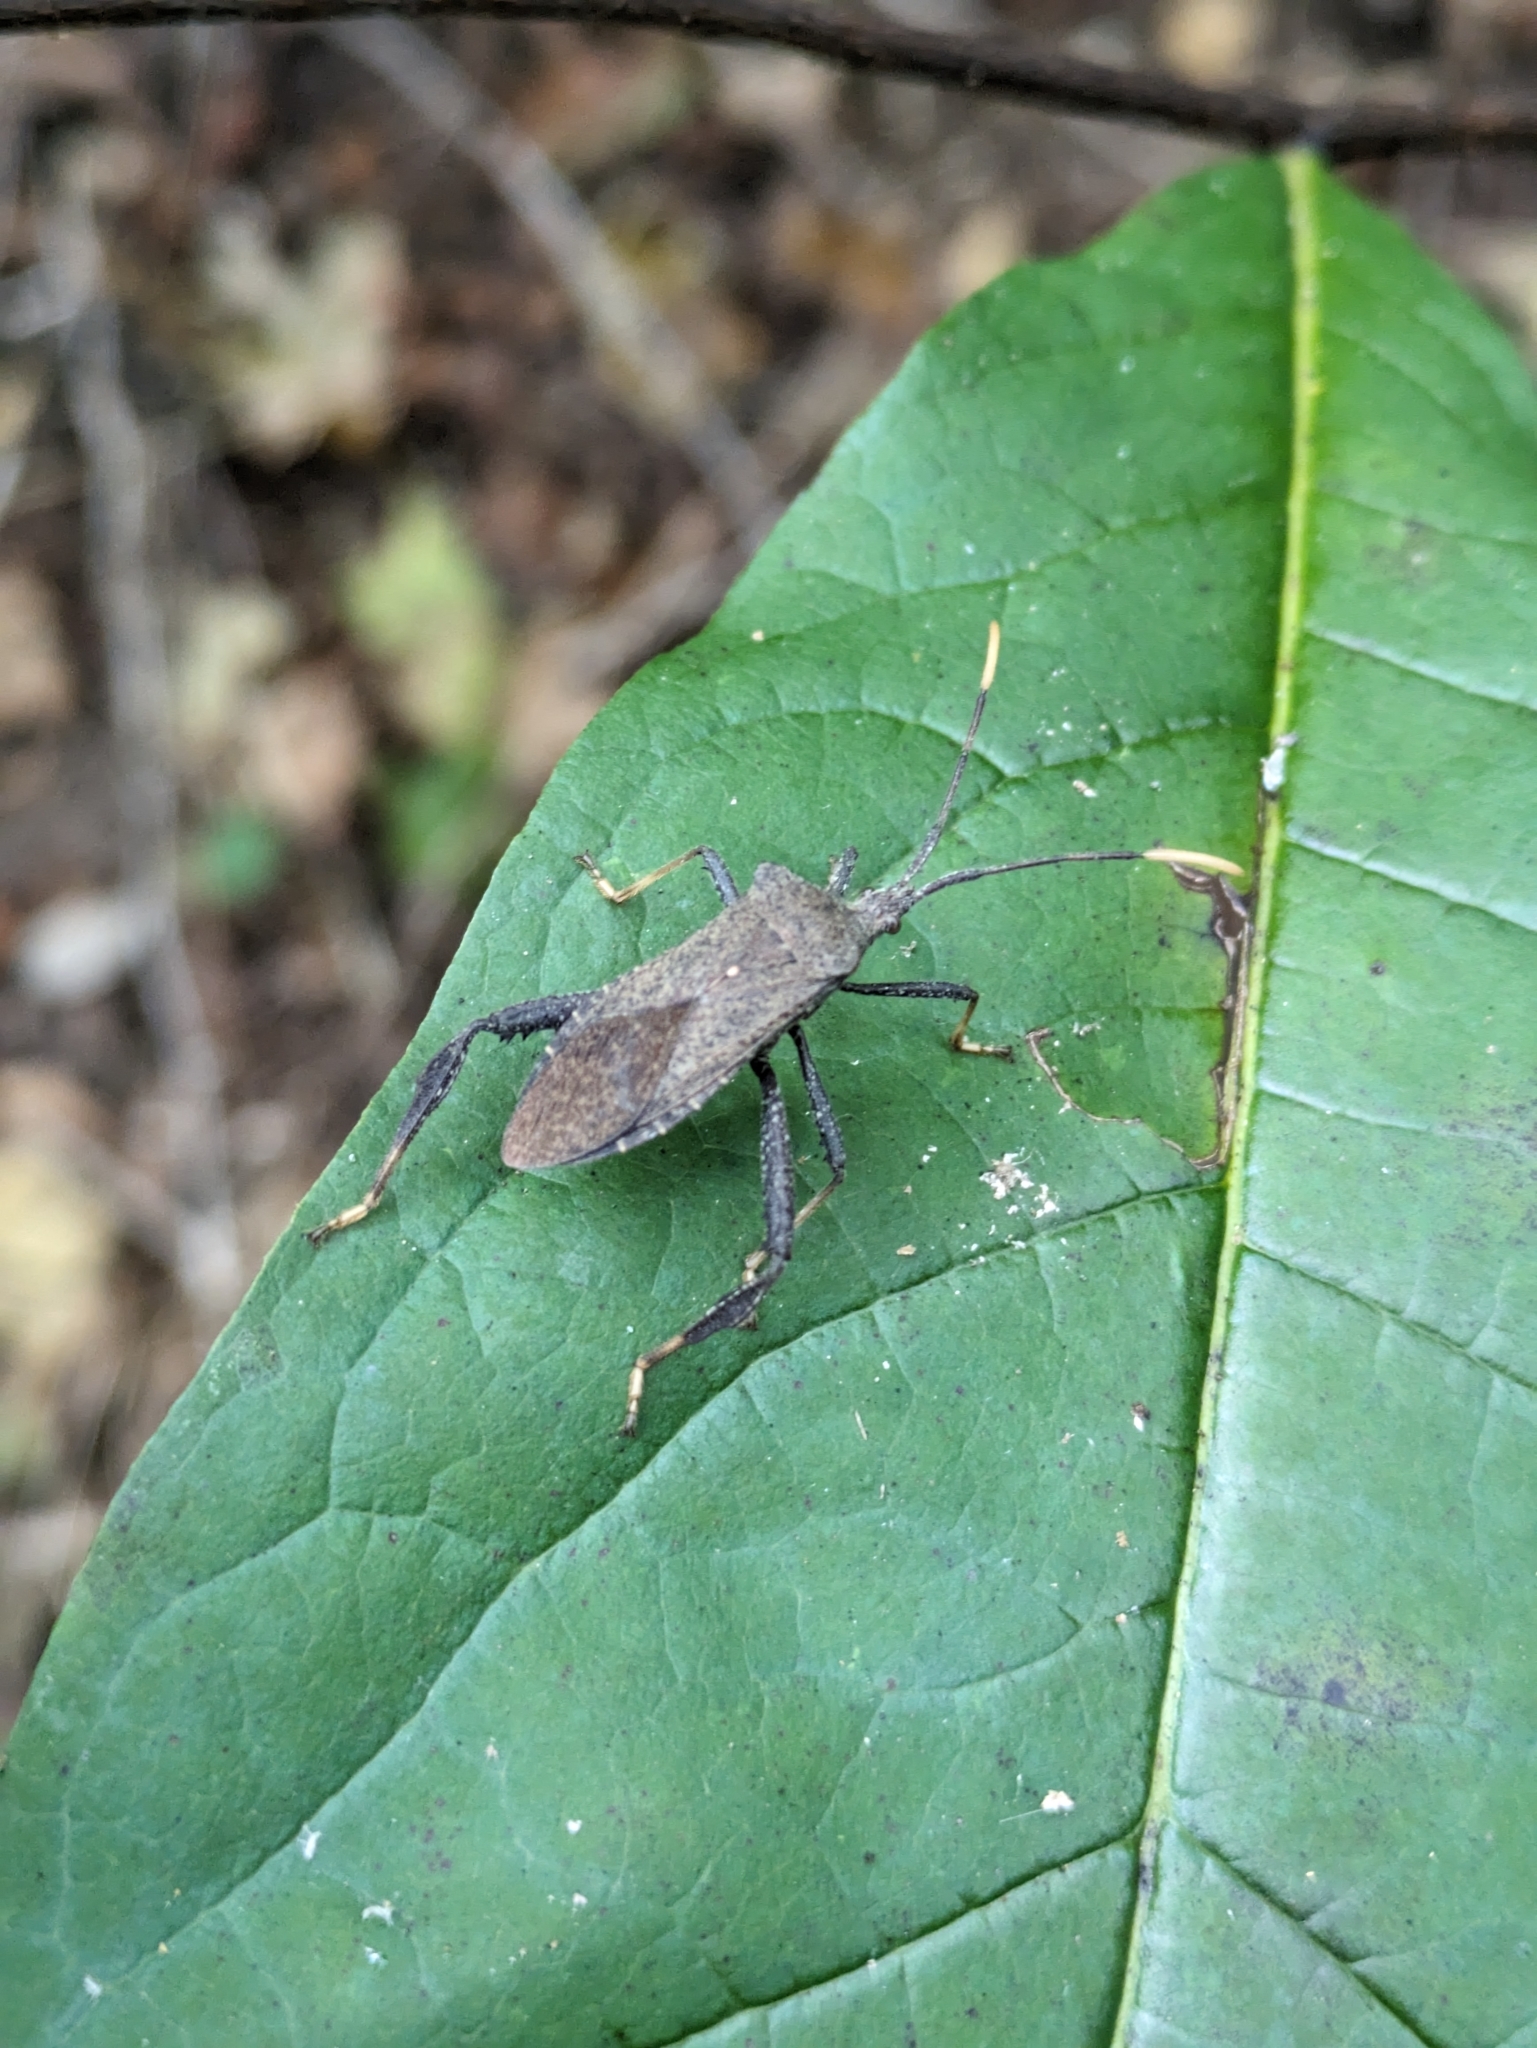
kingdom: Animalia
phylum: Arthropoda
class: Insecta
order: Hemiptera
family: Coreidae
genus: Acanthocephala
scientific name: Acanthocephala terminalis
